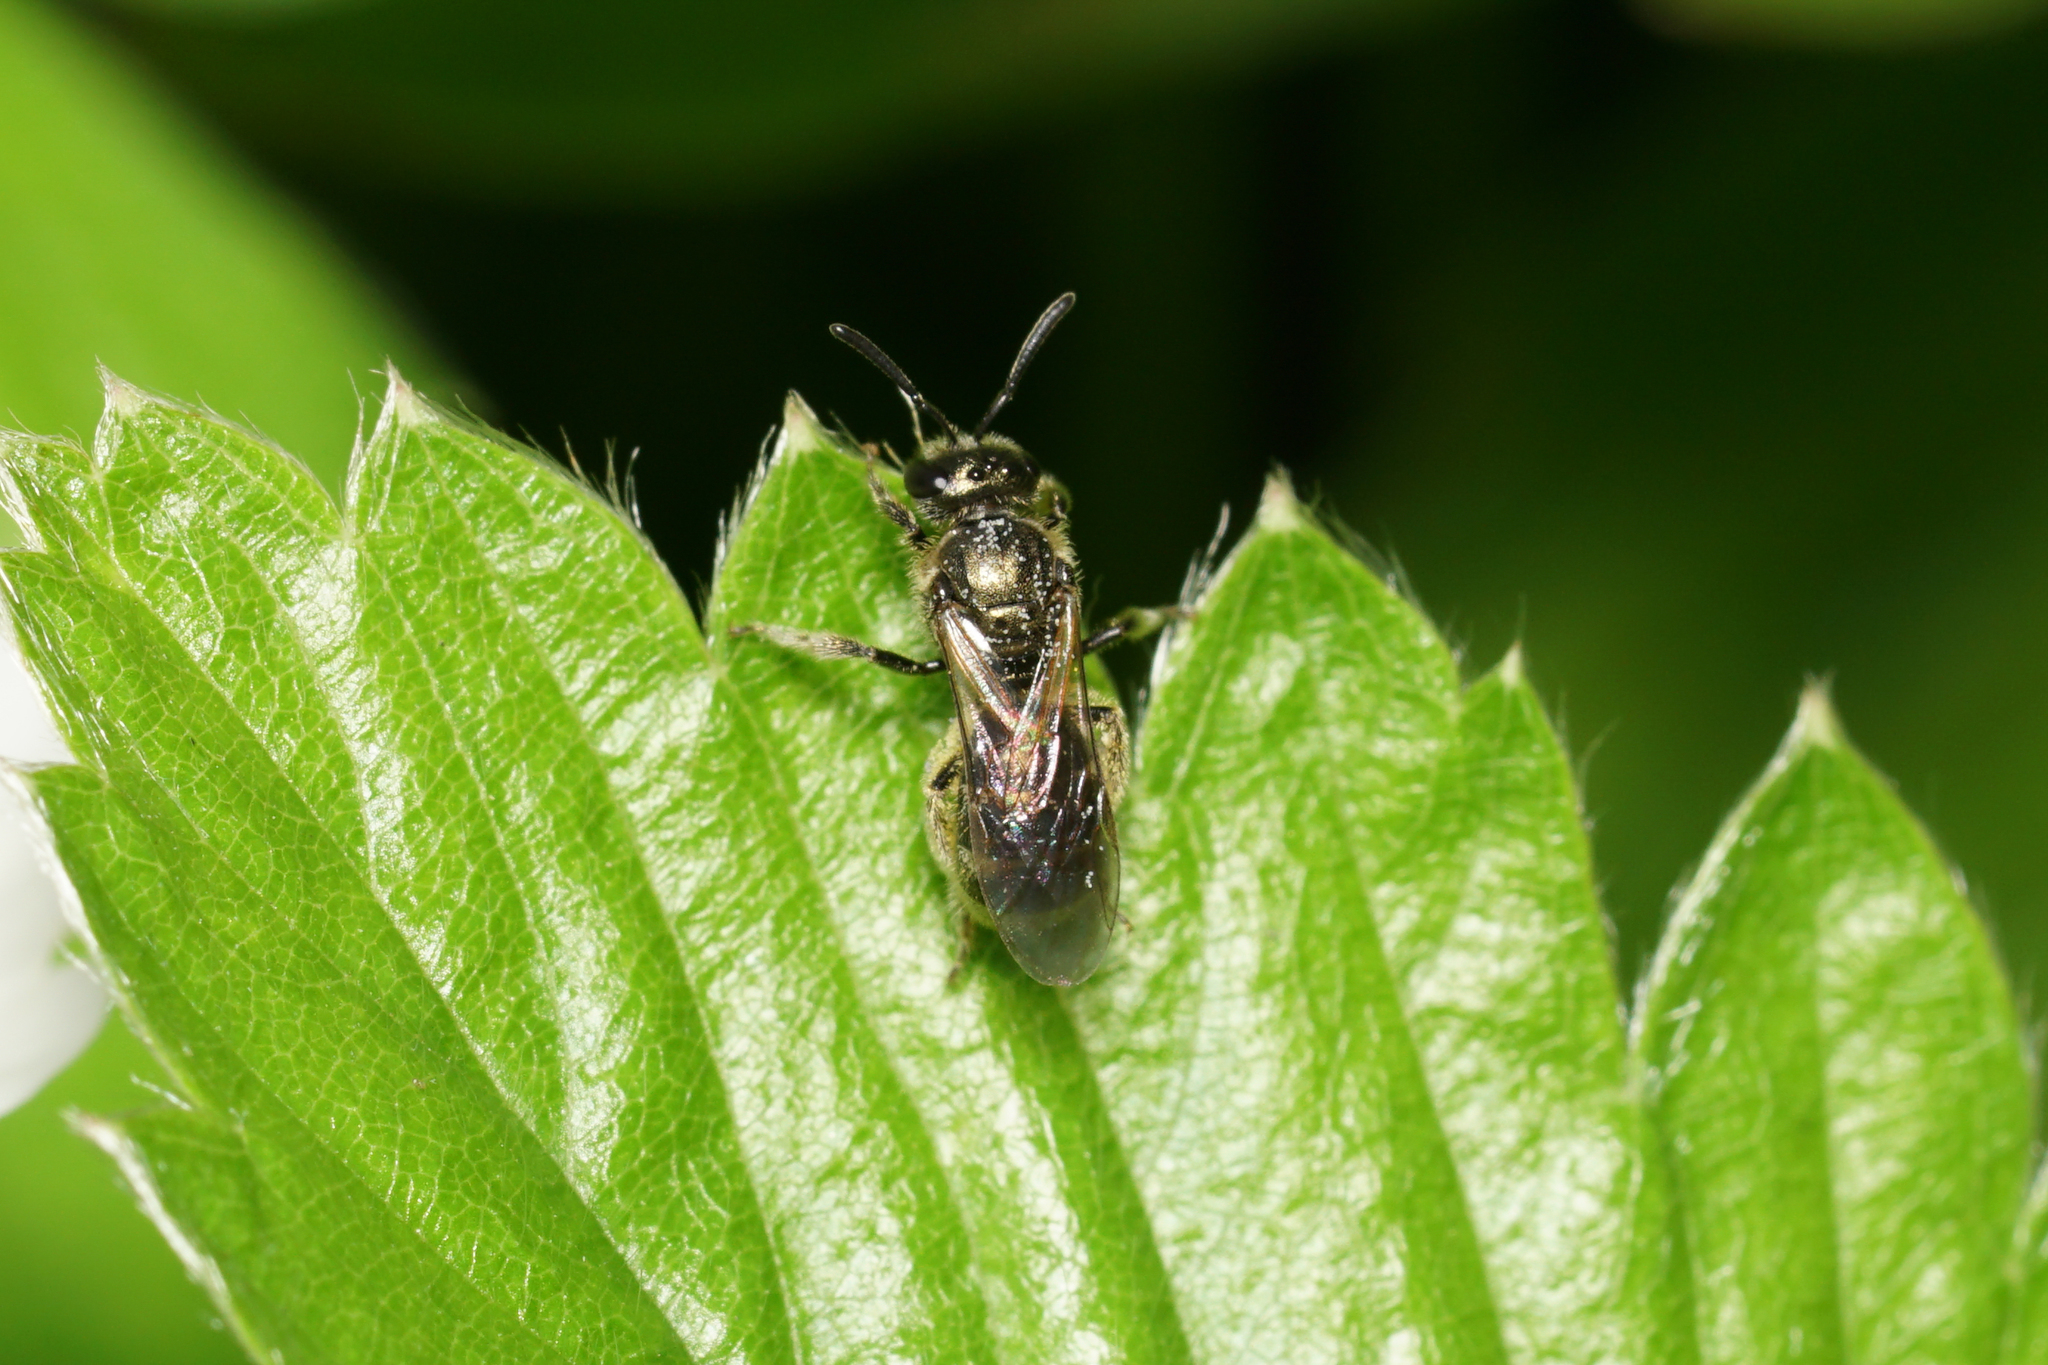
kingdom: Animalia
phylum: Arthropoda
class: Insecta
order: Hymenoptera
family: Halictidae
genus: Dialictus
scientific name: Dialictus
